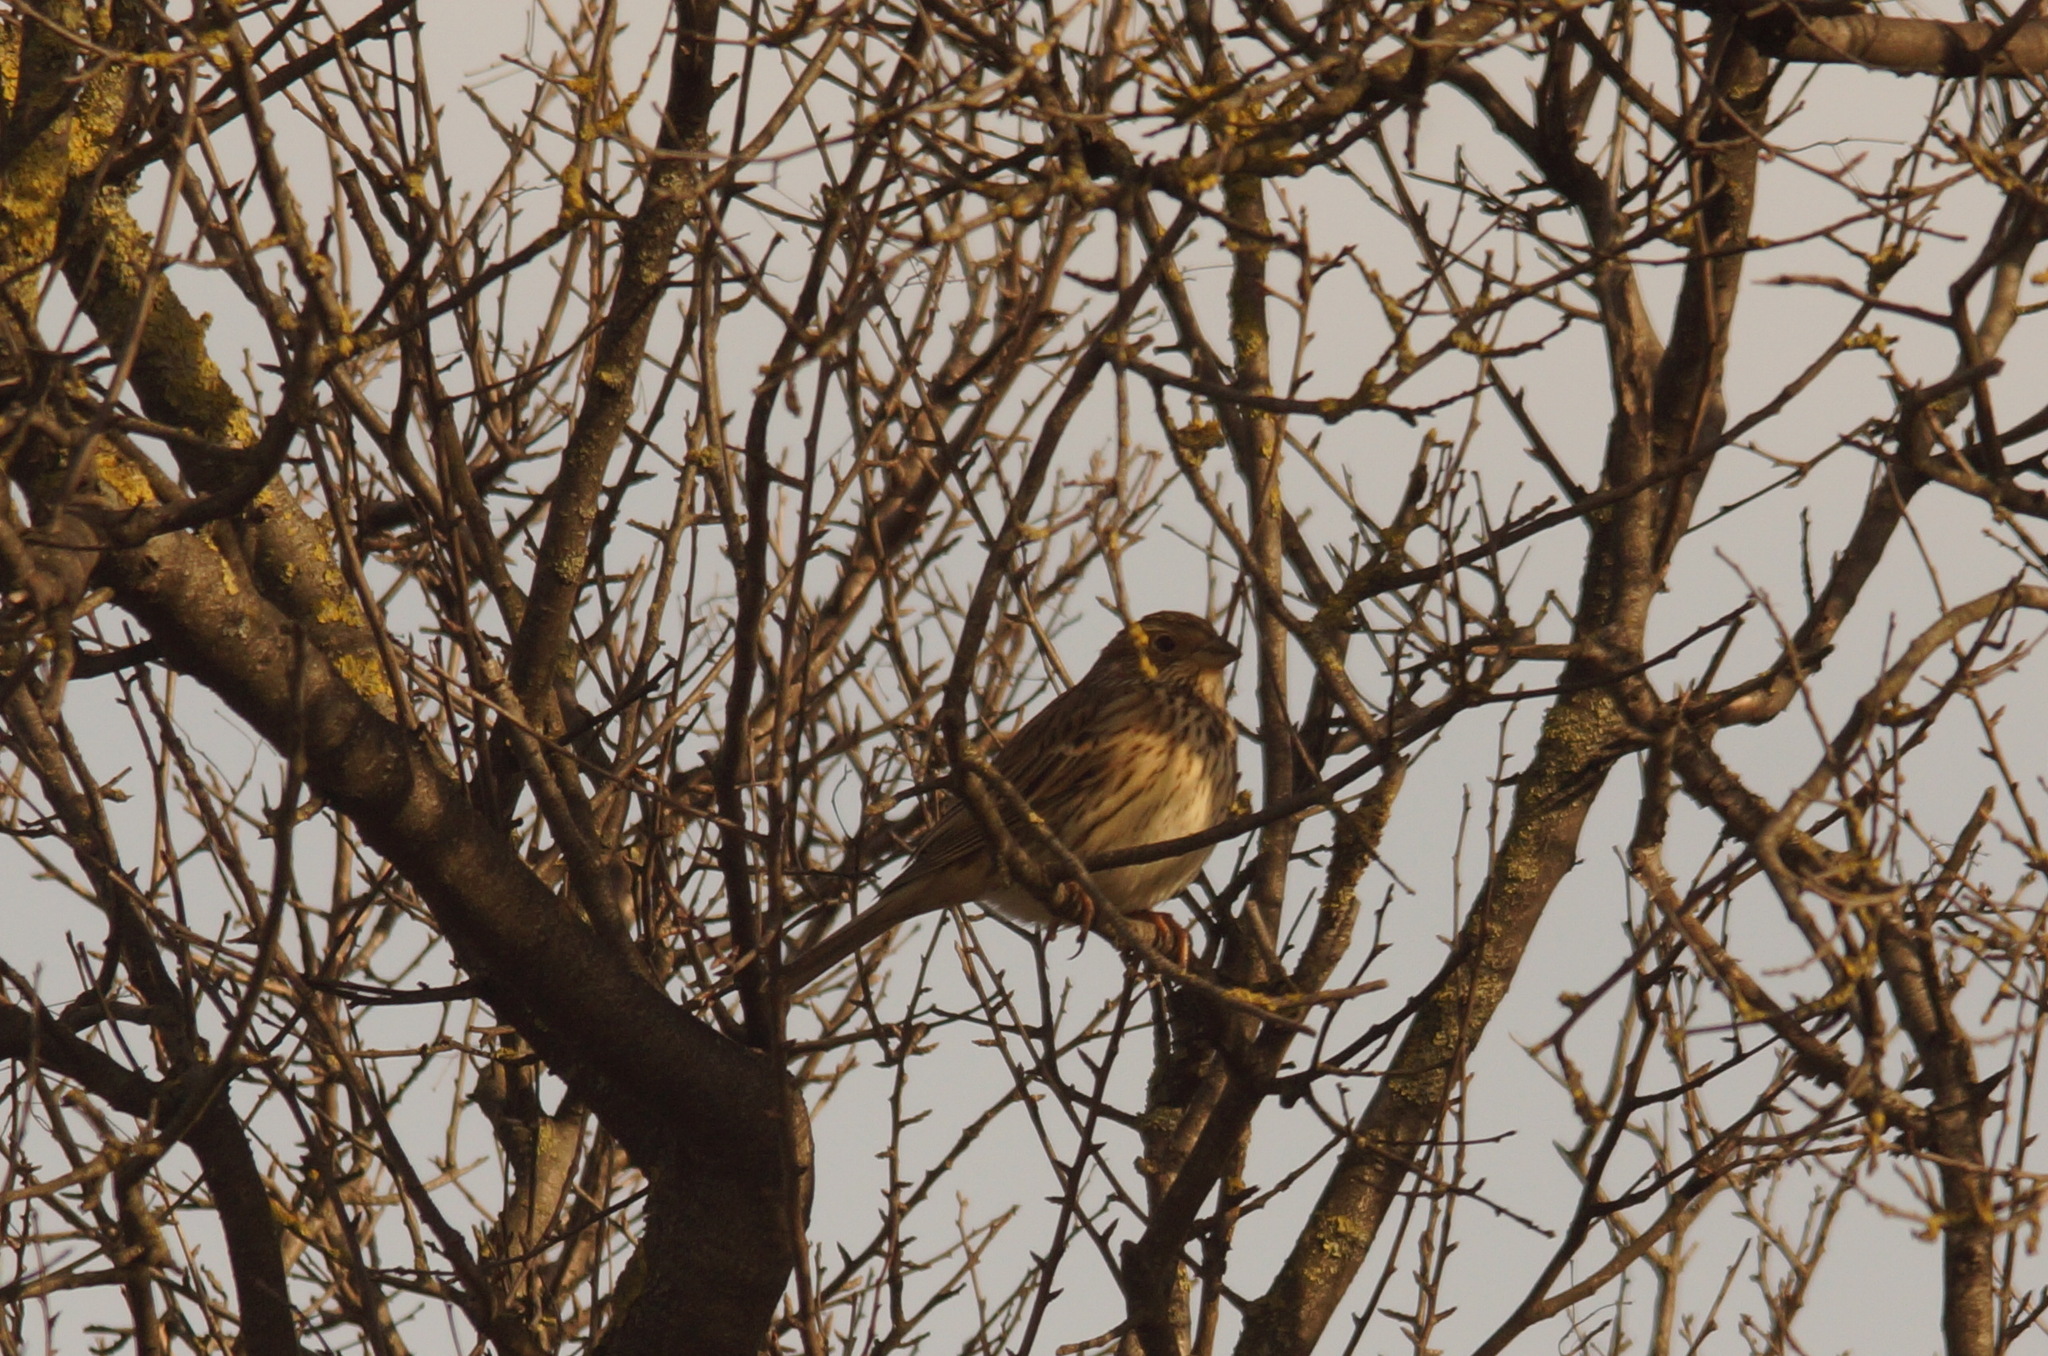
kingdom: Animalia
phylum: Chordata
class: Aves
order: Passeriformes
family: Emberizidae
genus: Emberiza
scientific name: Emberiza calandra
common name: Corn bunting
